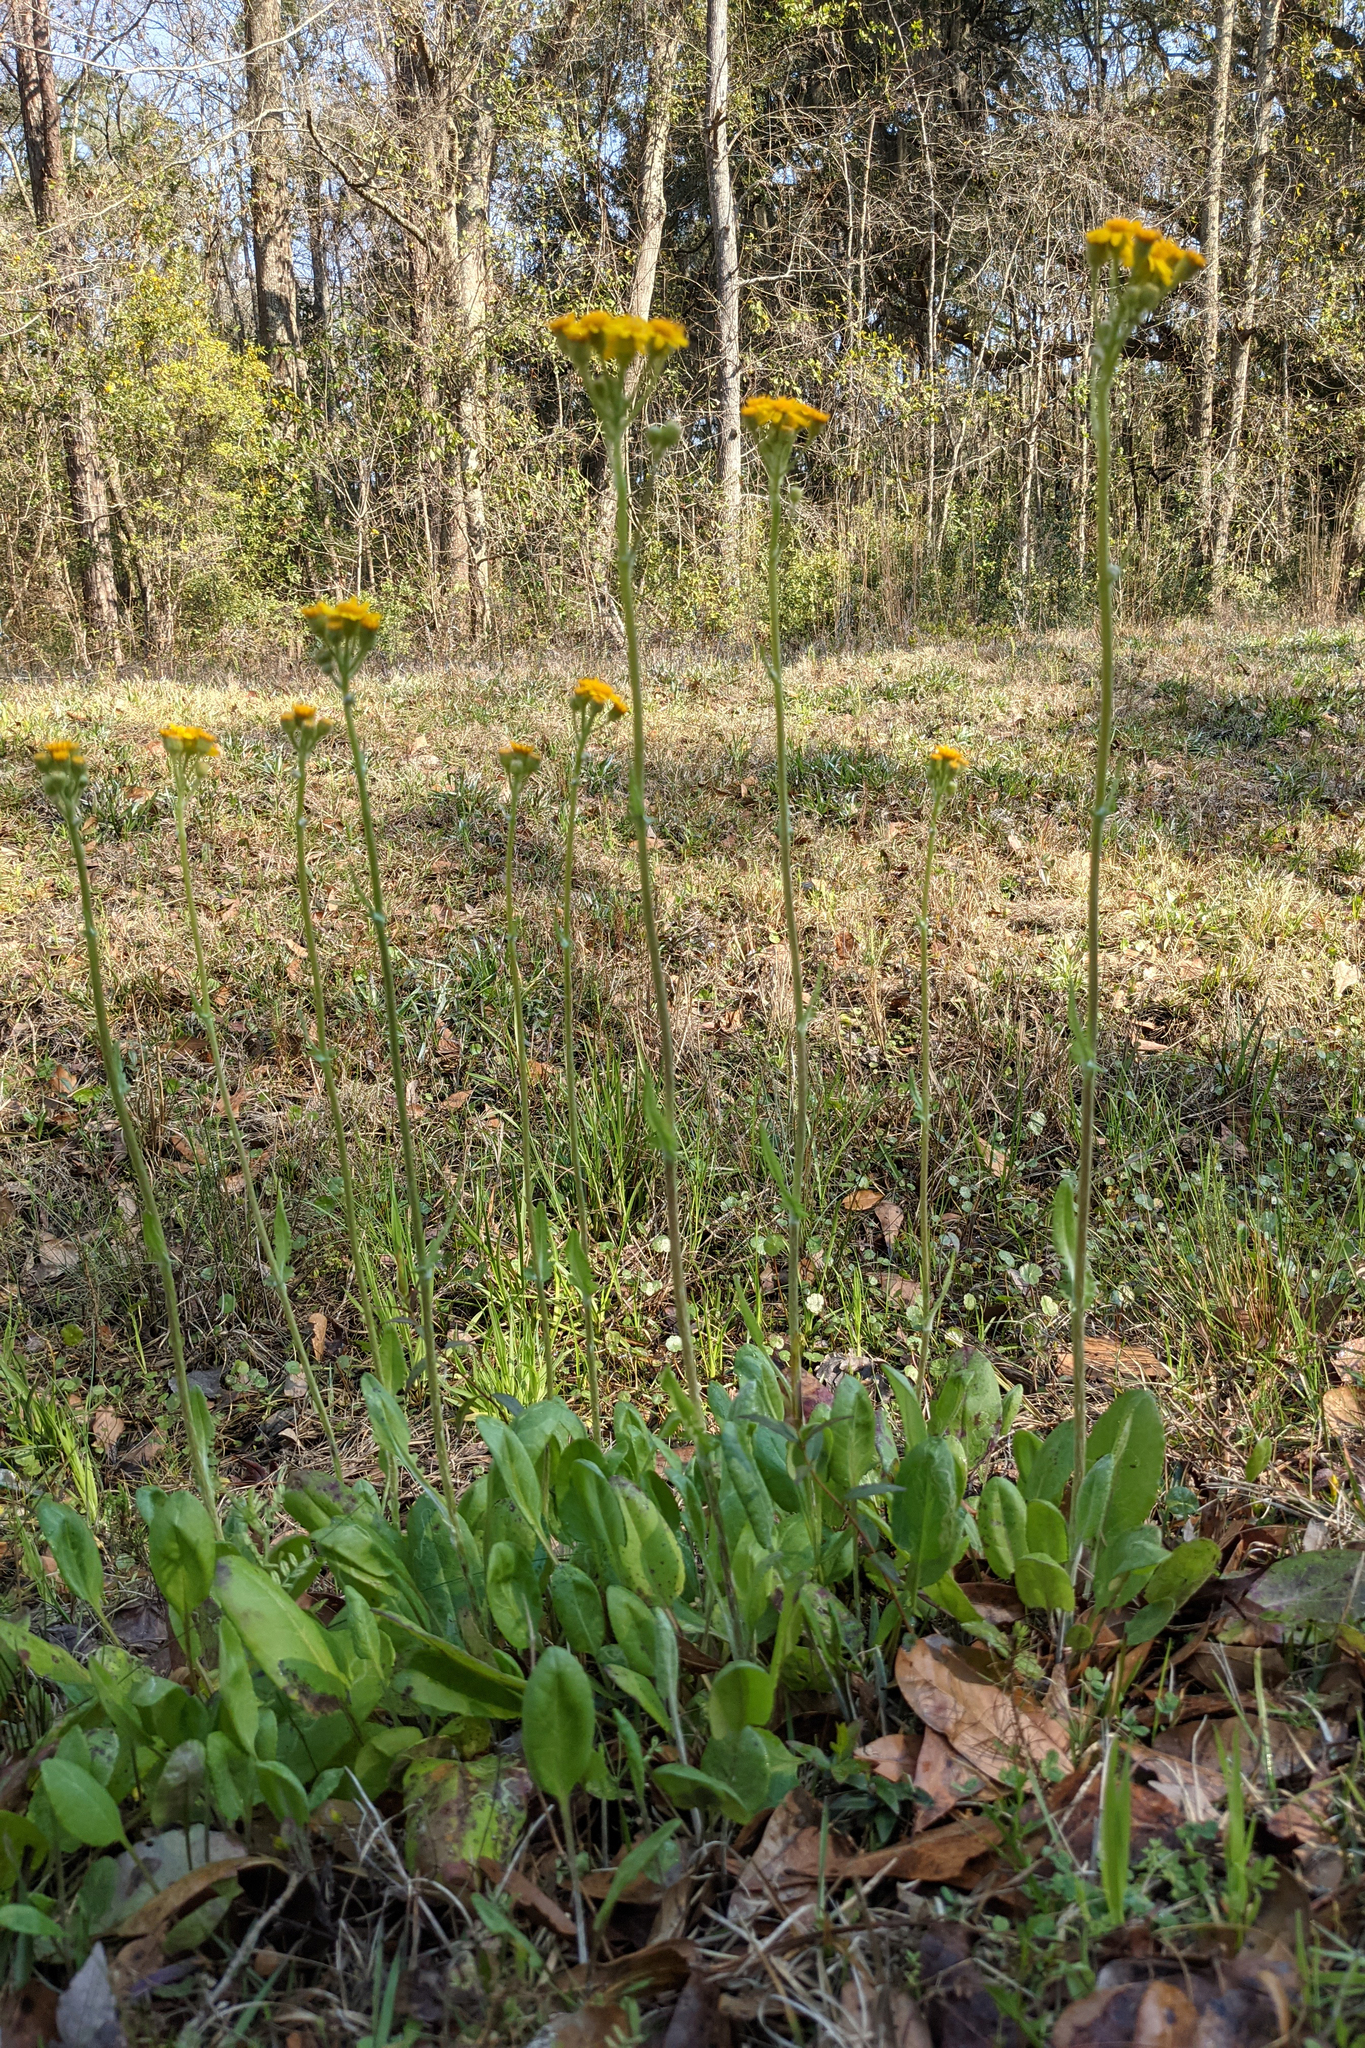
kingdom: Plantae
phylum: Tracheophyta
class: Magnoliopsida
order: Asterales
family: Asteraceae
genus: Packera
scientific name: Packera dubia
